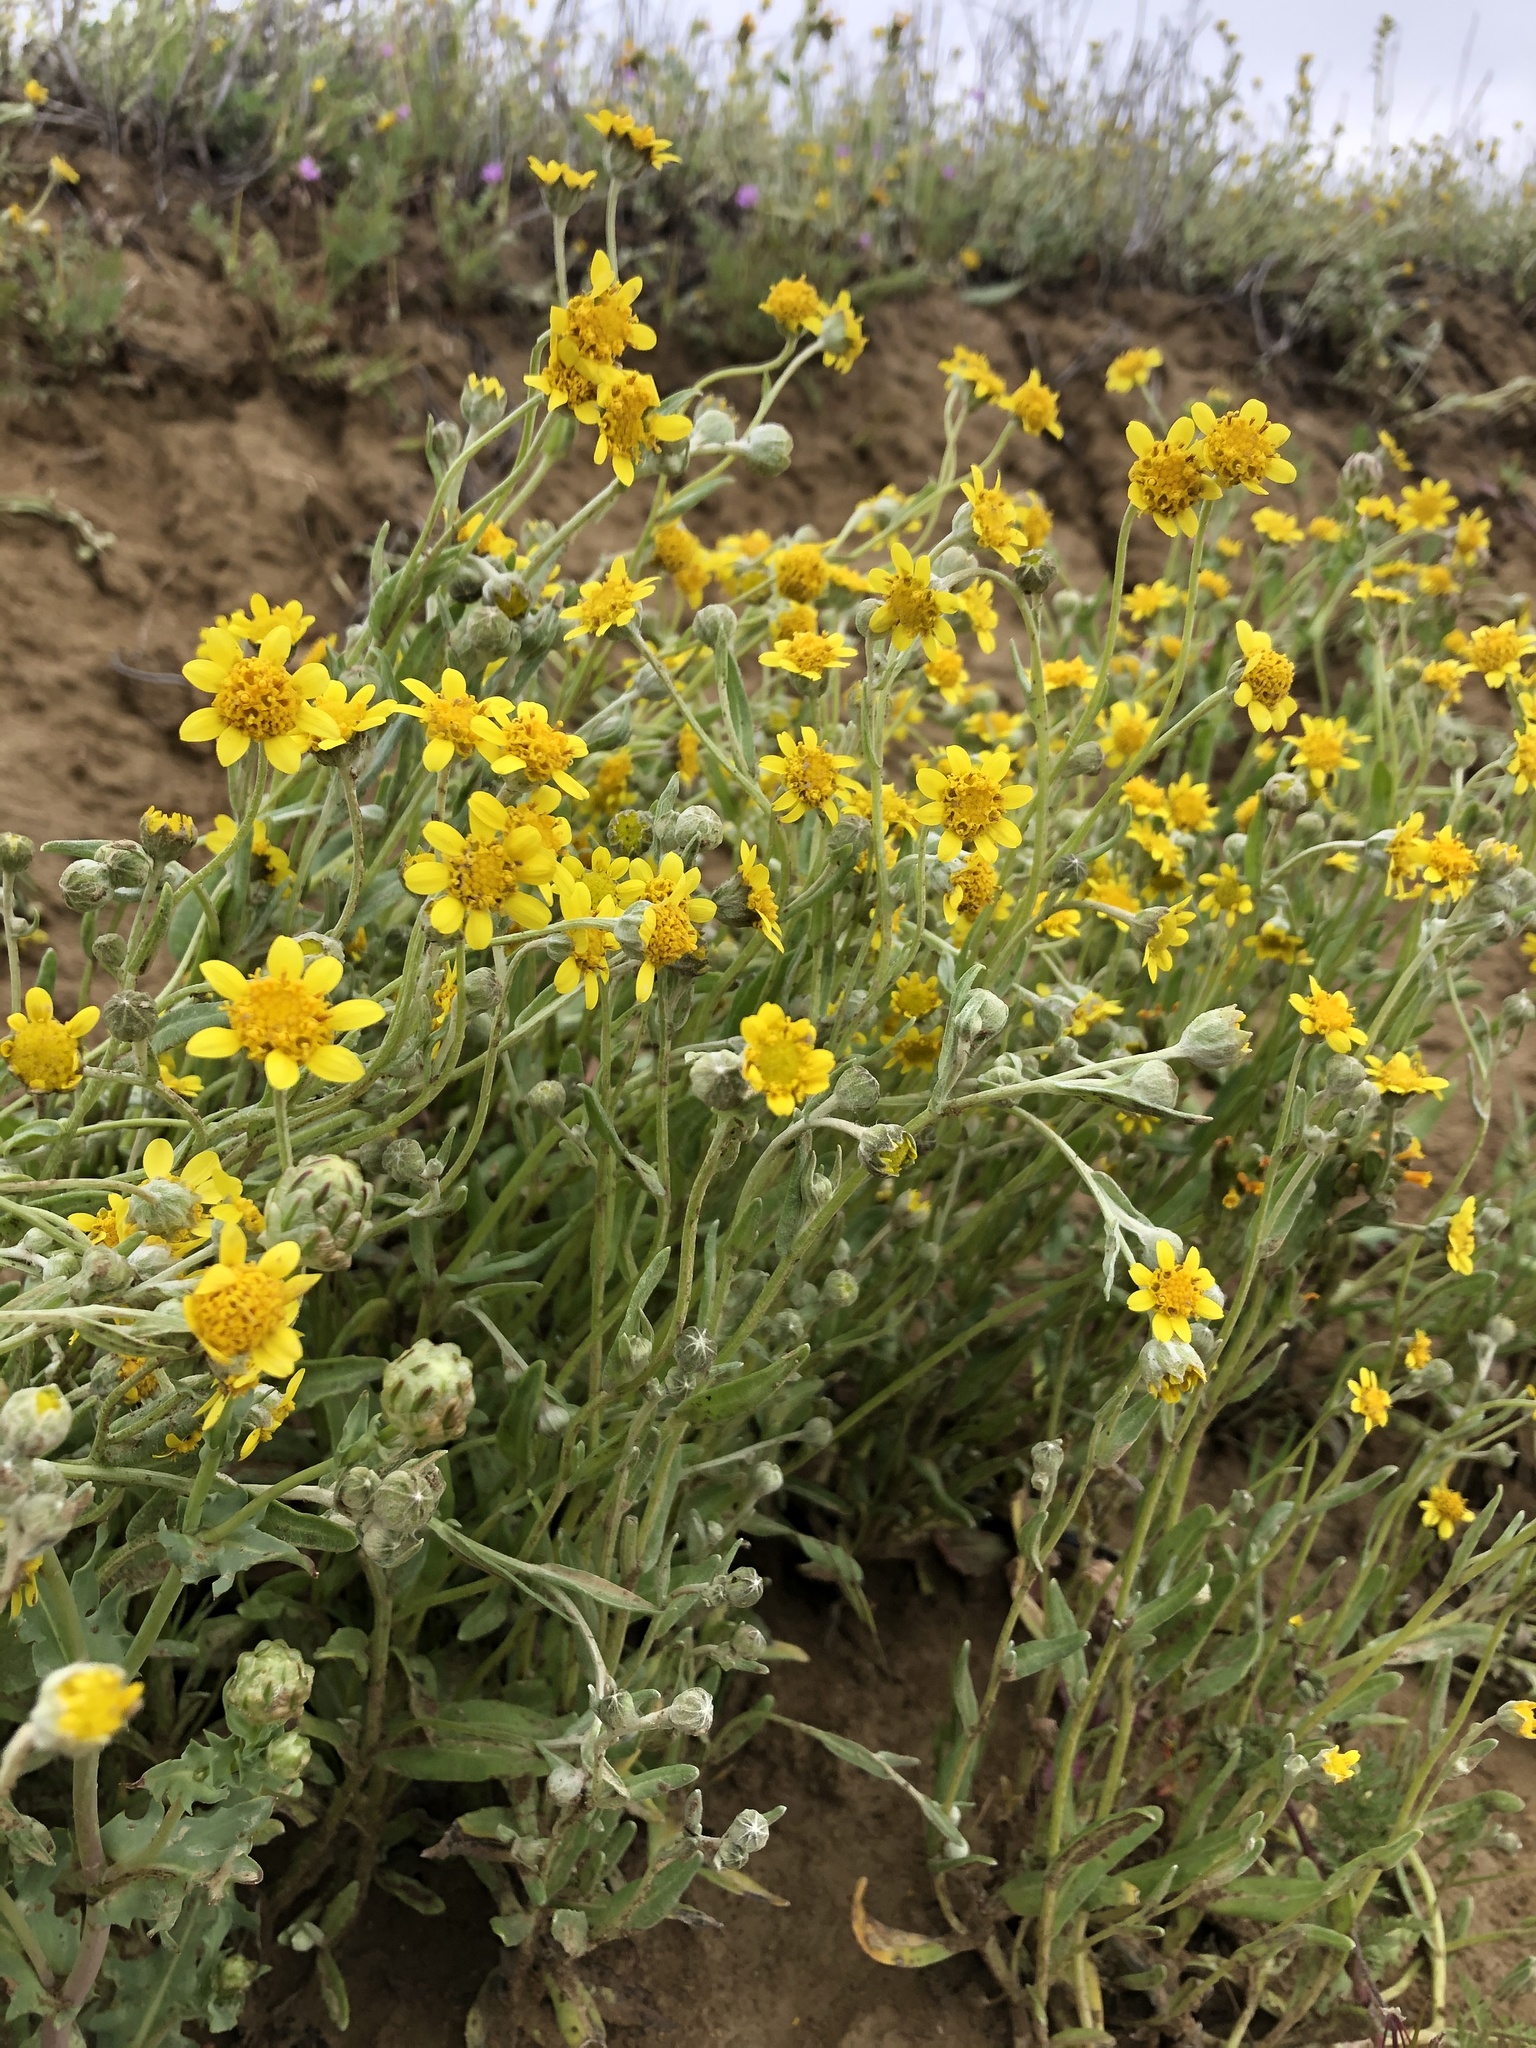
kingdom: Plantae
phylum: Tracheophyta
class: Magnoliopsida
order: Asterales
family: Asteraceae
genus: Monolopia
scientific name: Monolopia stricta
